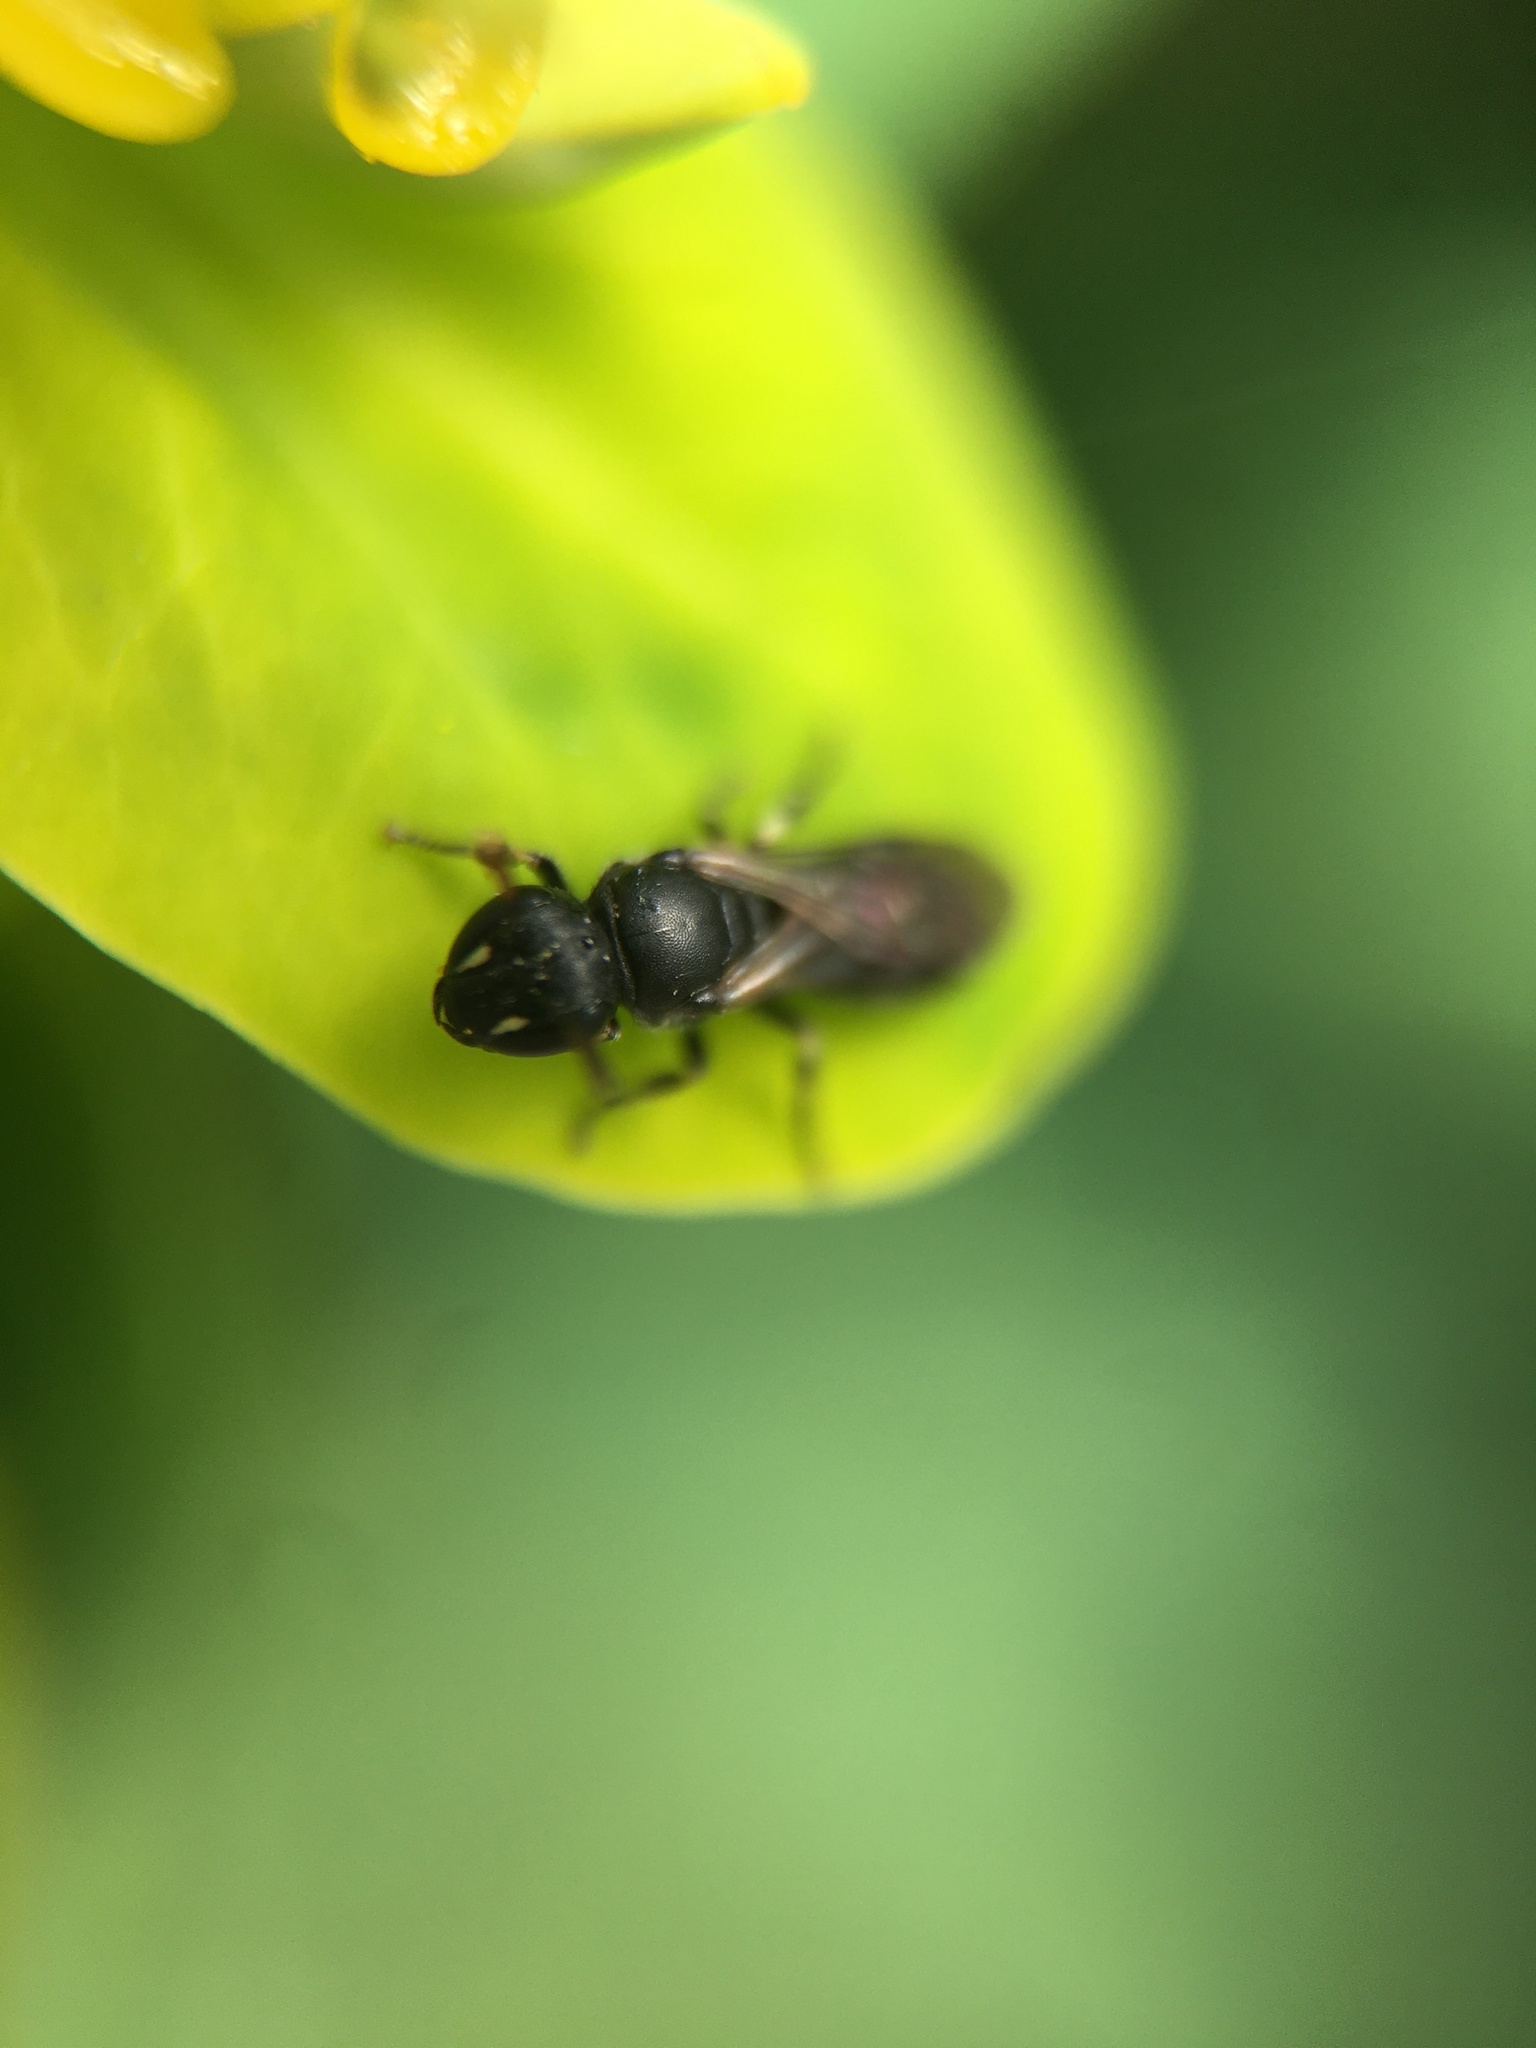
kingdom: Animalia
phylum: Arthropoda
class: Insecta
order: Hymenoptera
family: Colletidae
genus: Hylaeus
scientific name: Hylaeus
